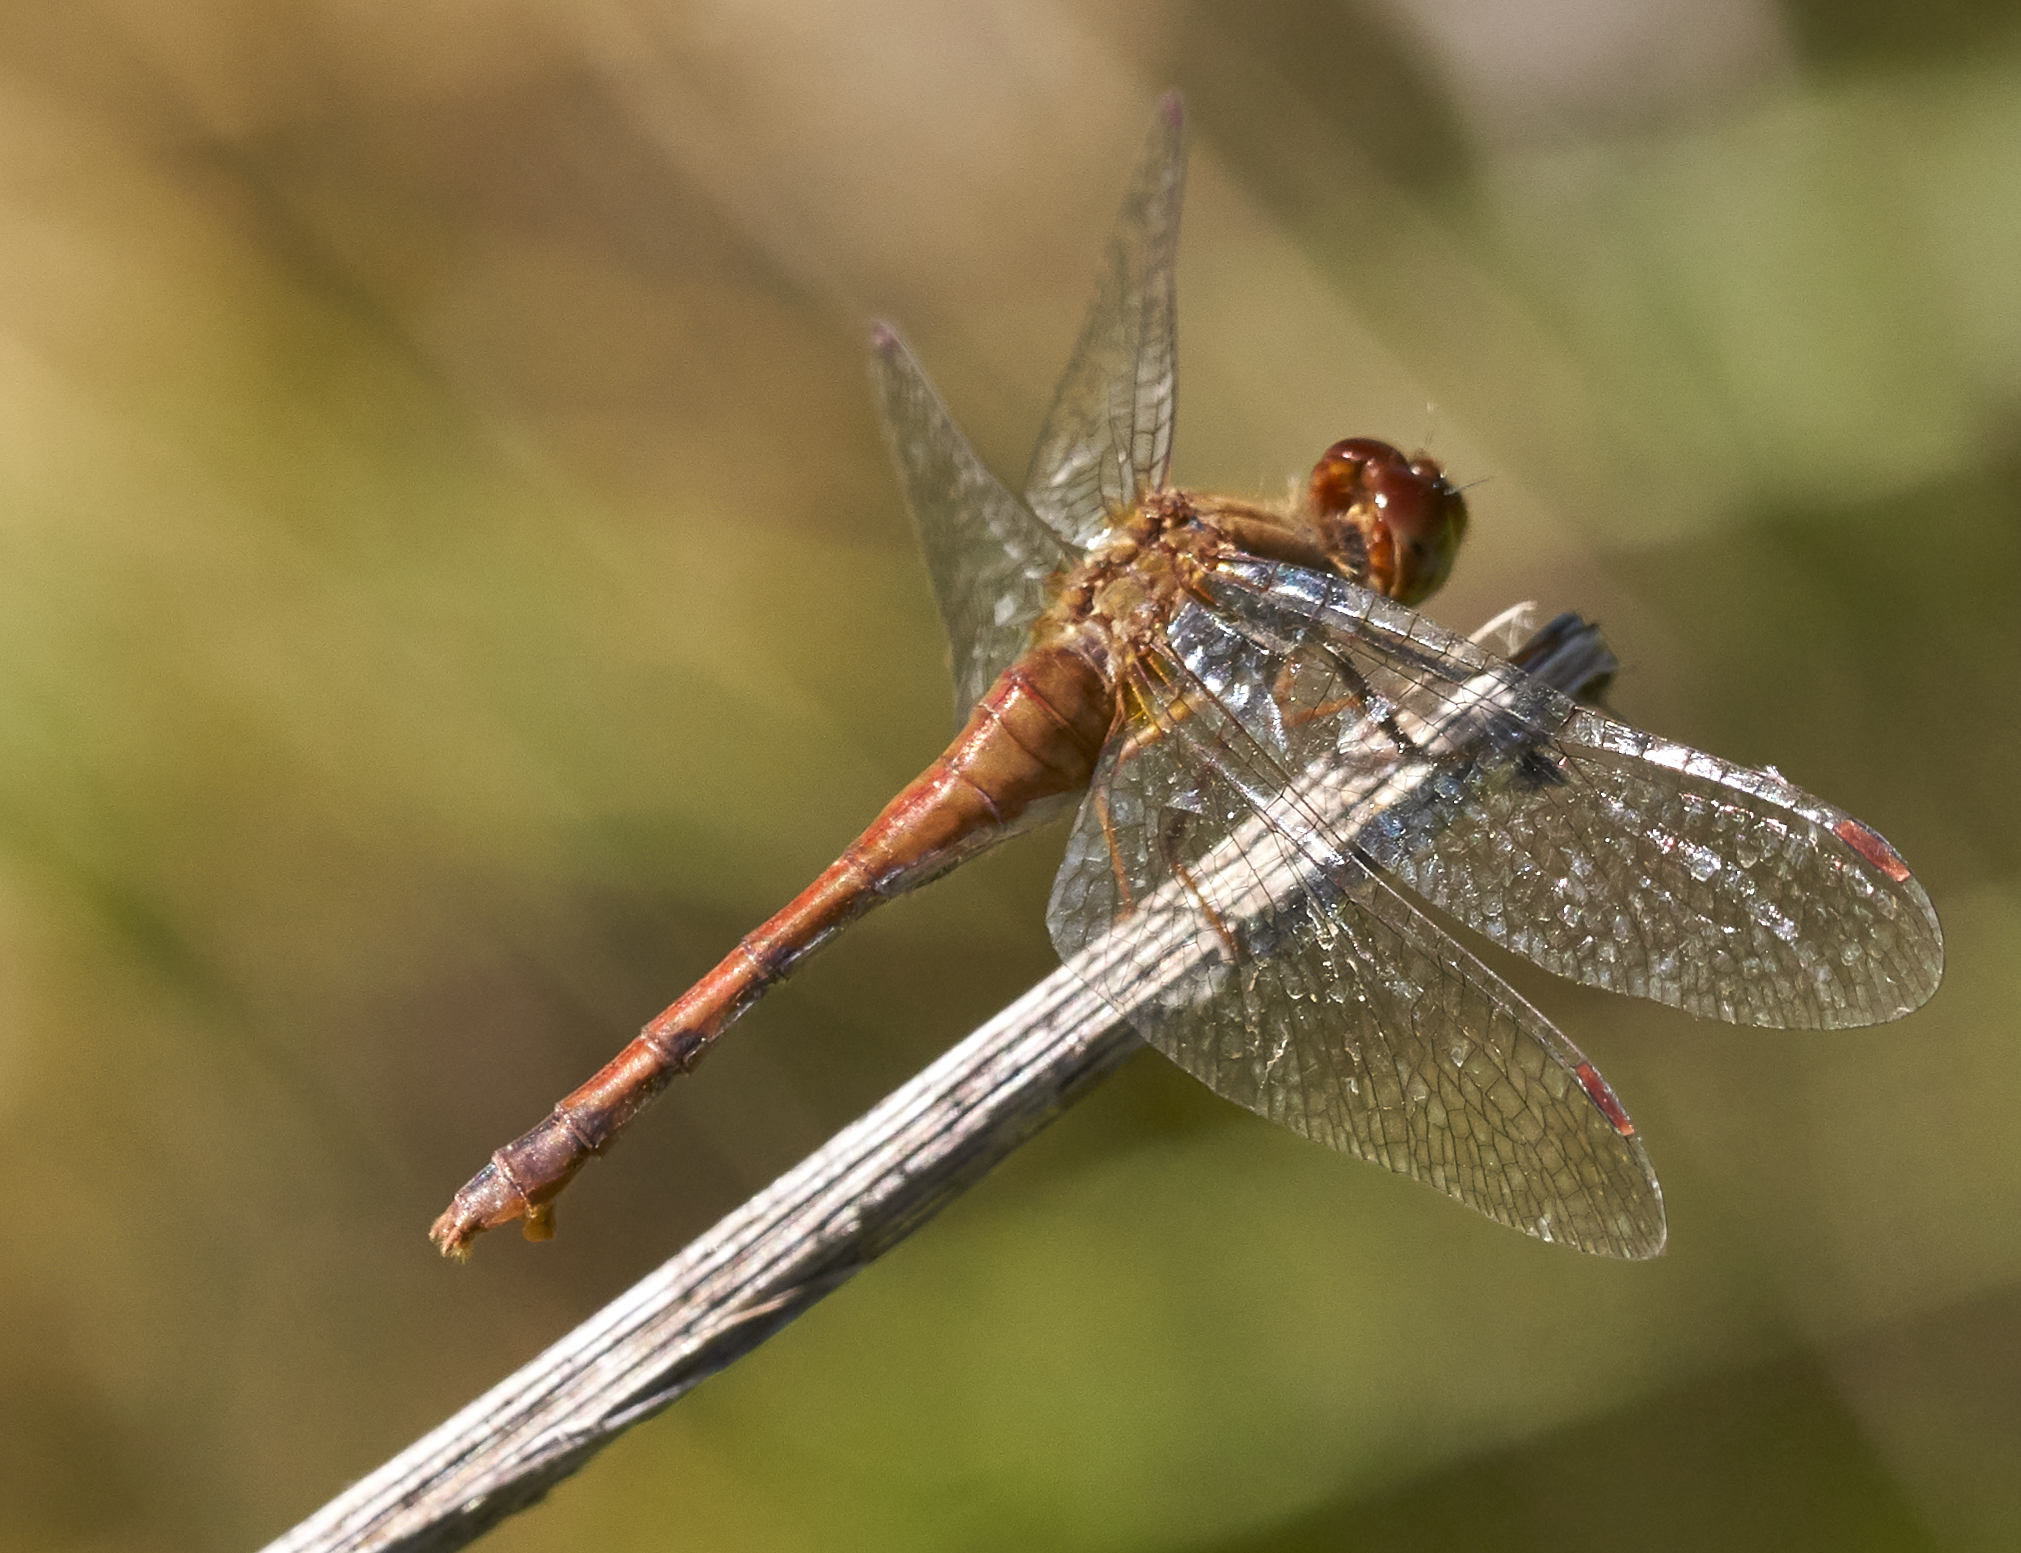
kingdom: Animalia
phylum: Arthropoda
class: Insecta
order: Odonata
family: Libellulidae
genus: Sympetrum
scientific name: Sympetrum vicinum
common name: Autumn meadowhawk
